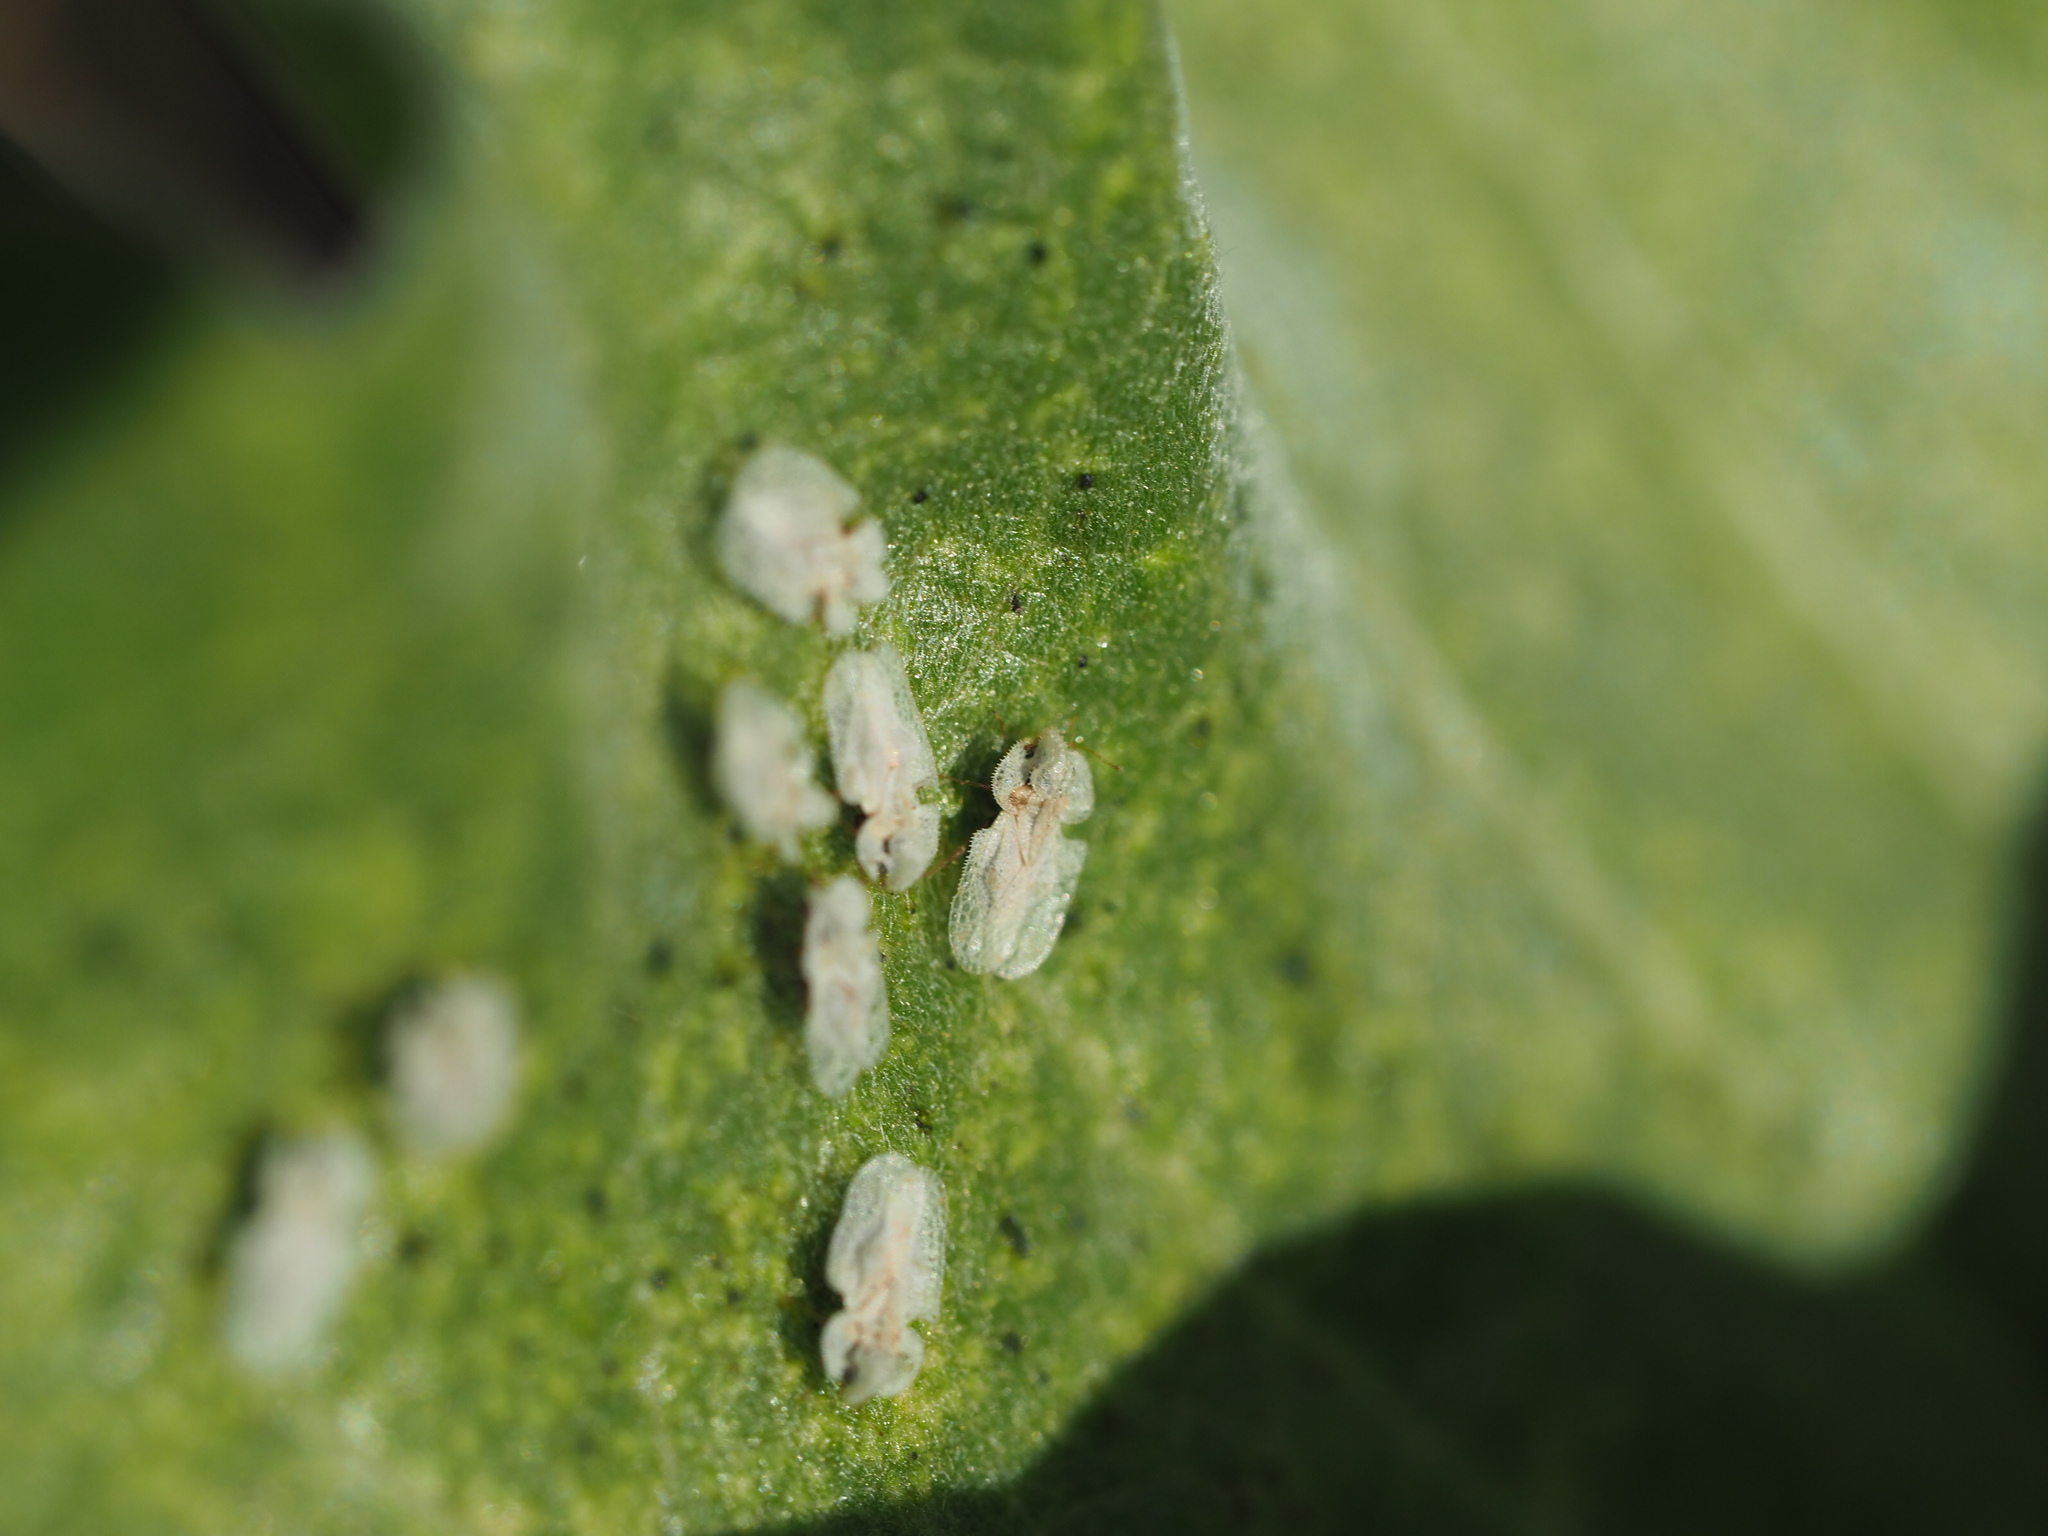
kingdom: Animalia
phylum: Arthropoda
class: Insecta
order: Hemiptera
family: Tingidae
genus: Corythucha
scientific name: Corythucha immaculata
